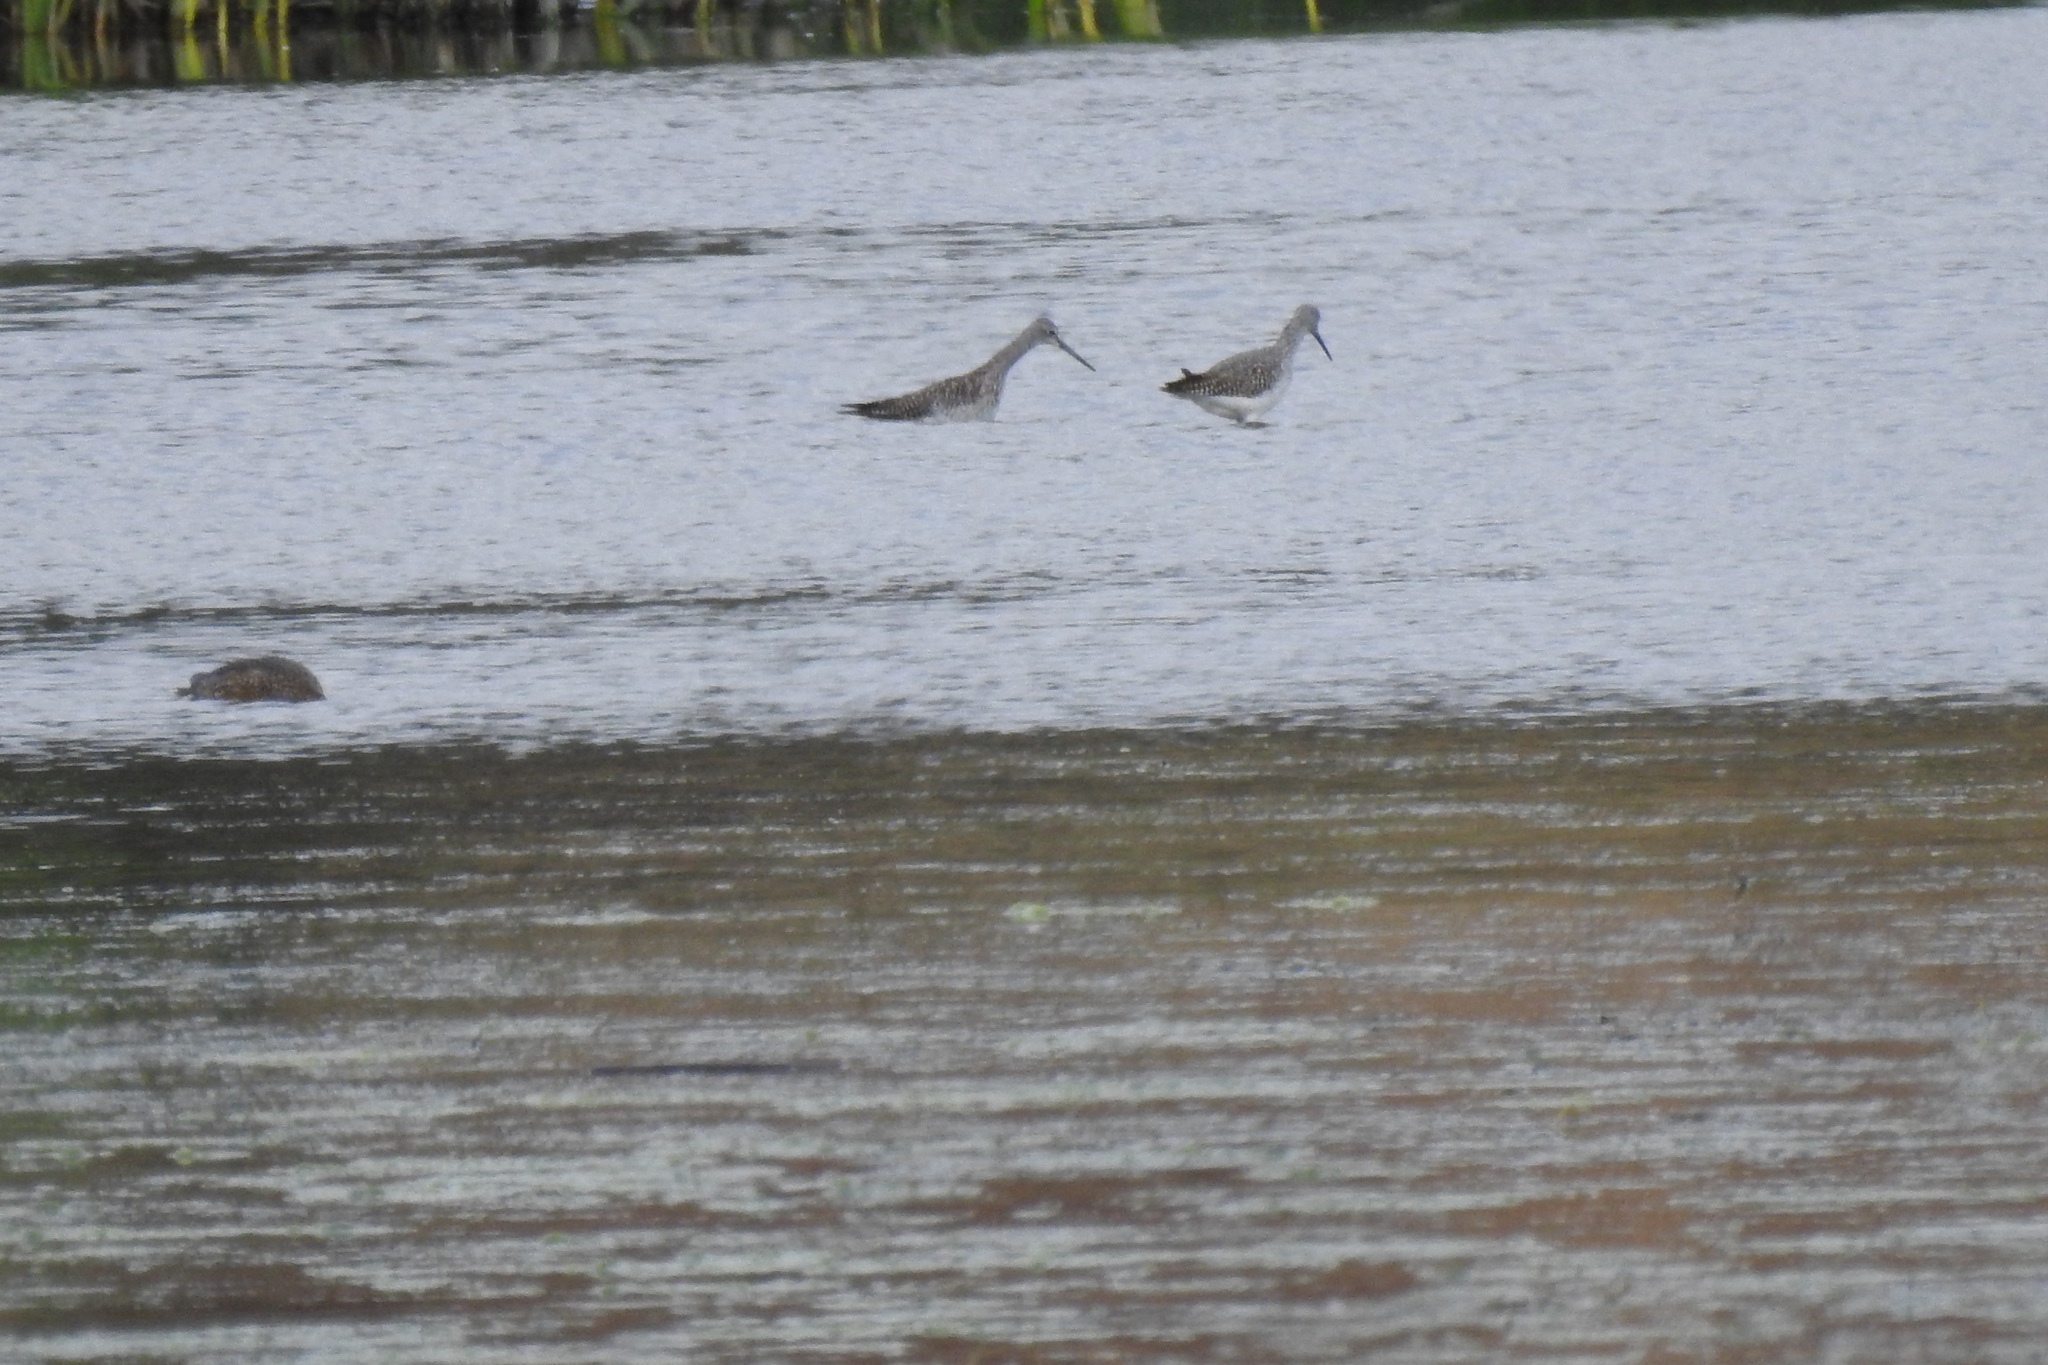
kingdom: Animalia
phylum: Chordata
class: Aves
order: Charadriiformes
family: Scolopacidae
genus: Tringa
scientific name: Tringa melanoleuca
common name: Greater yellowlegs
